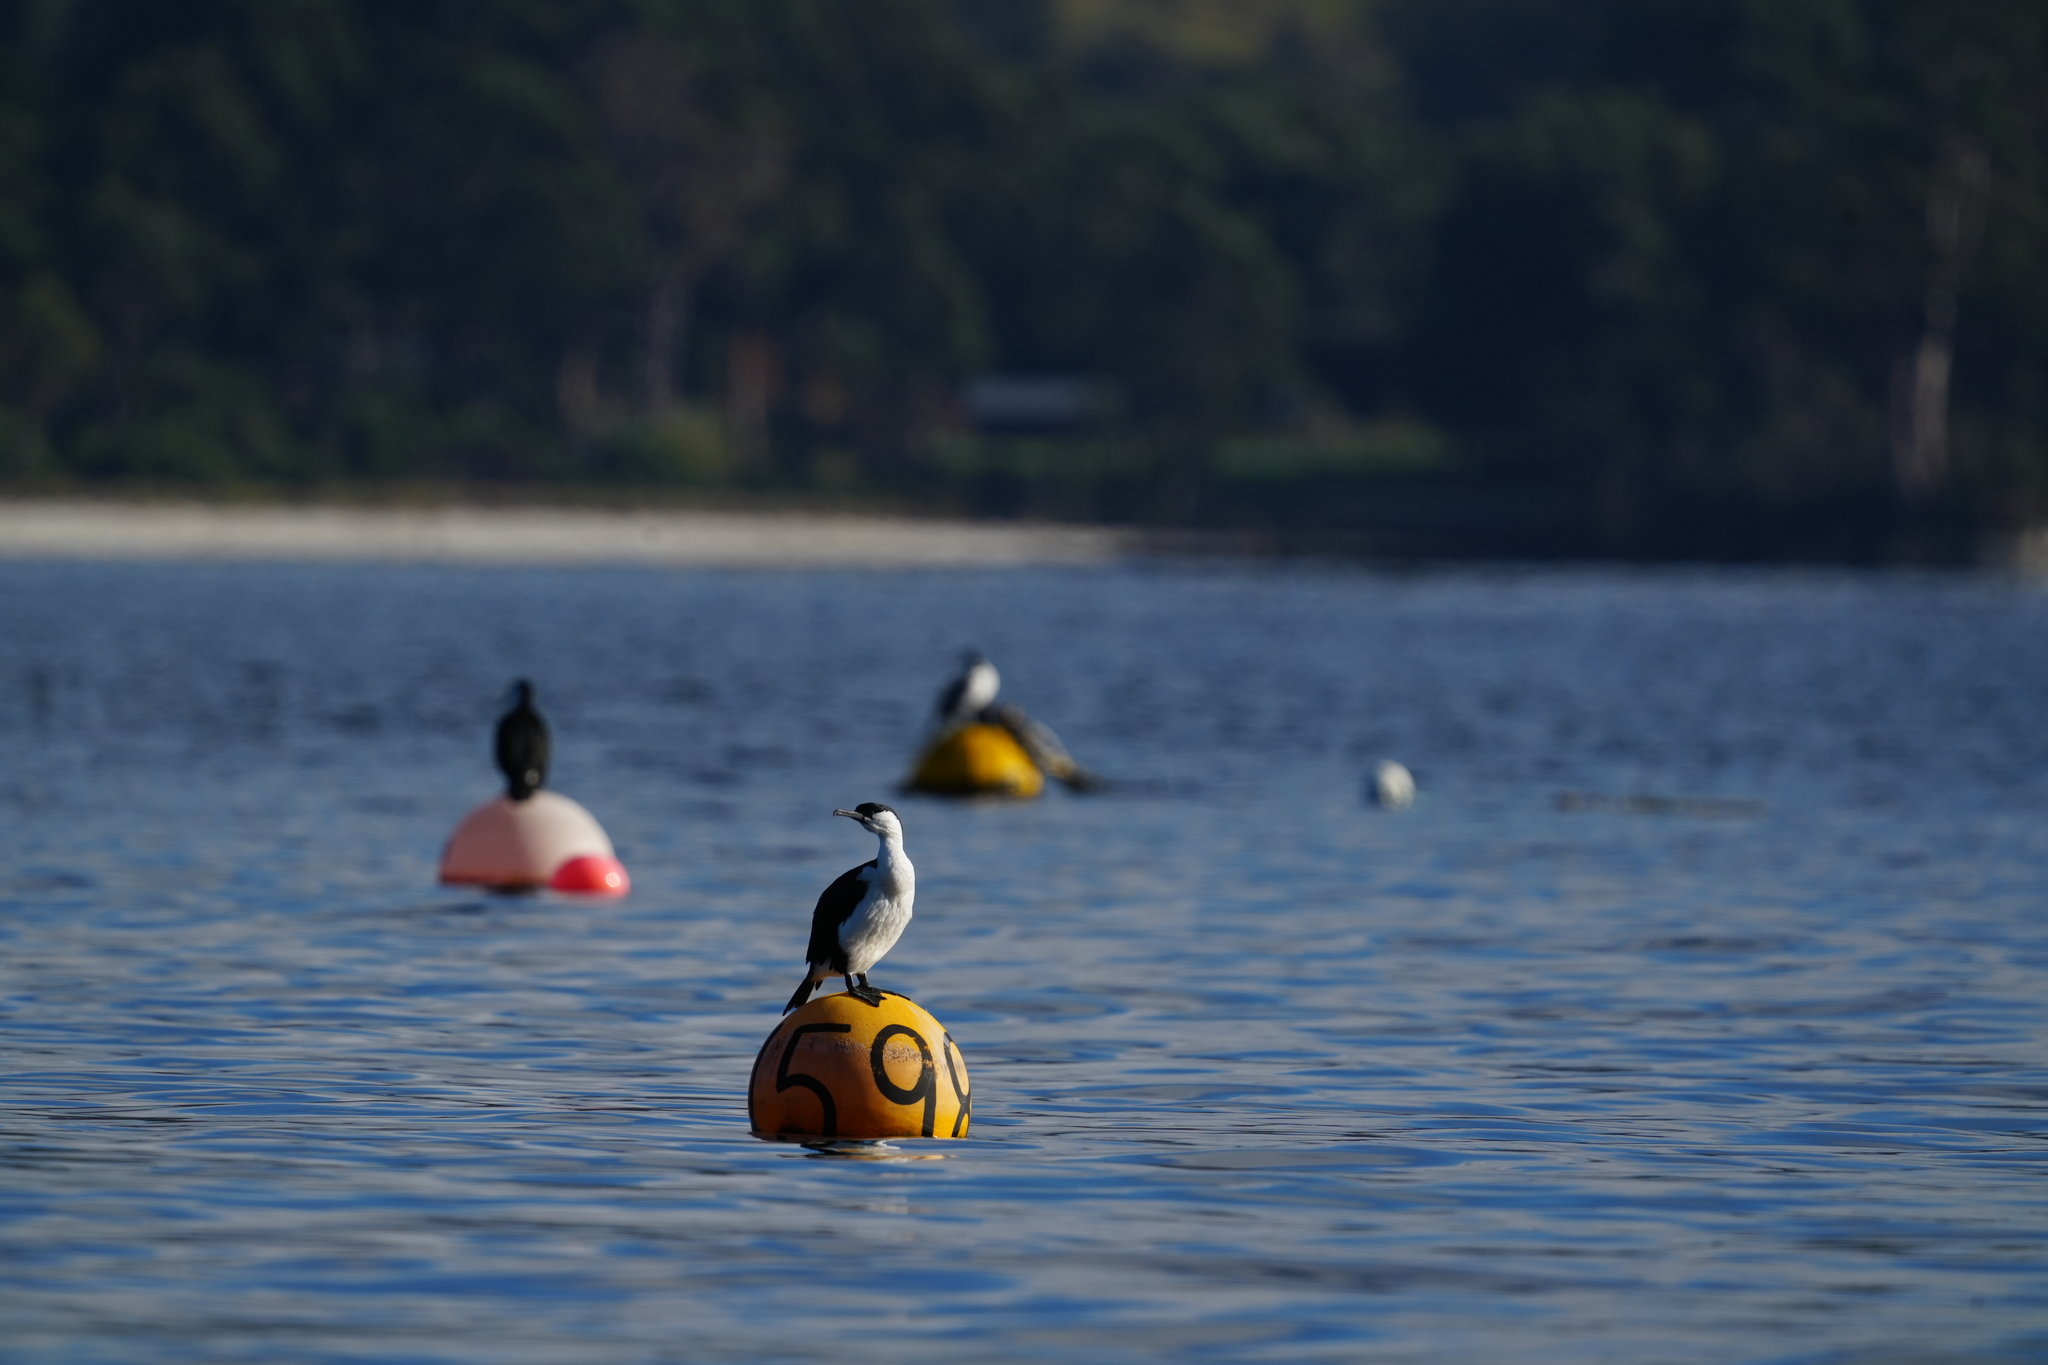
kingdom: Animalia
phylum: Chordata
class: Aves
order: Suliformes
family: Phalacrocoracidae
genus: Phalacrocorax
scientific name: Phalacrocorax fuscescens
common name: Black-faced cormorant
